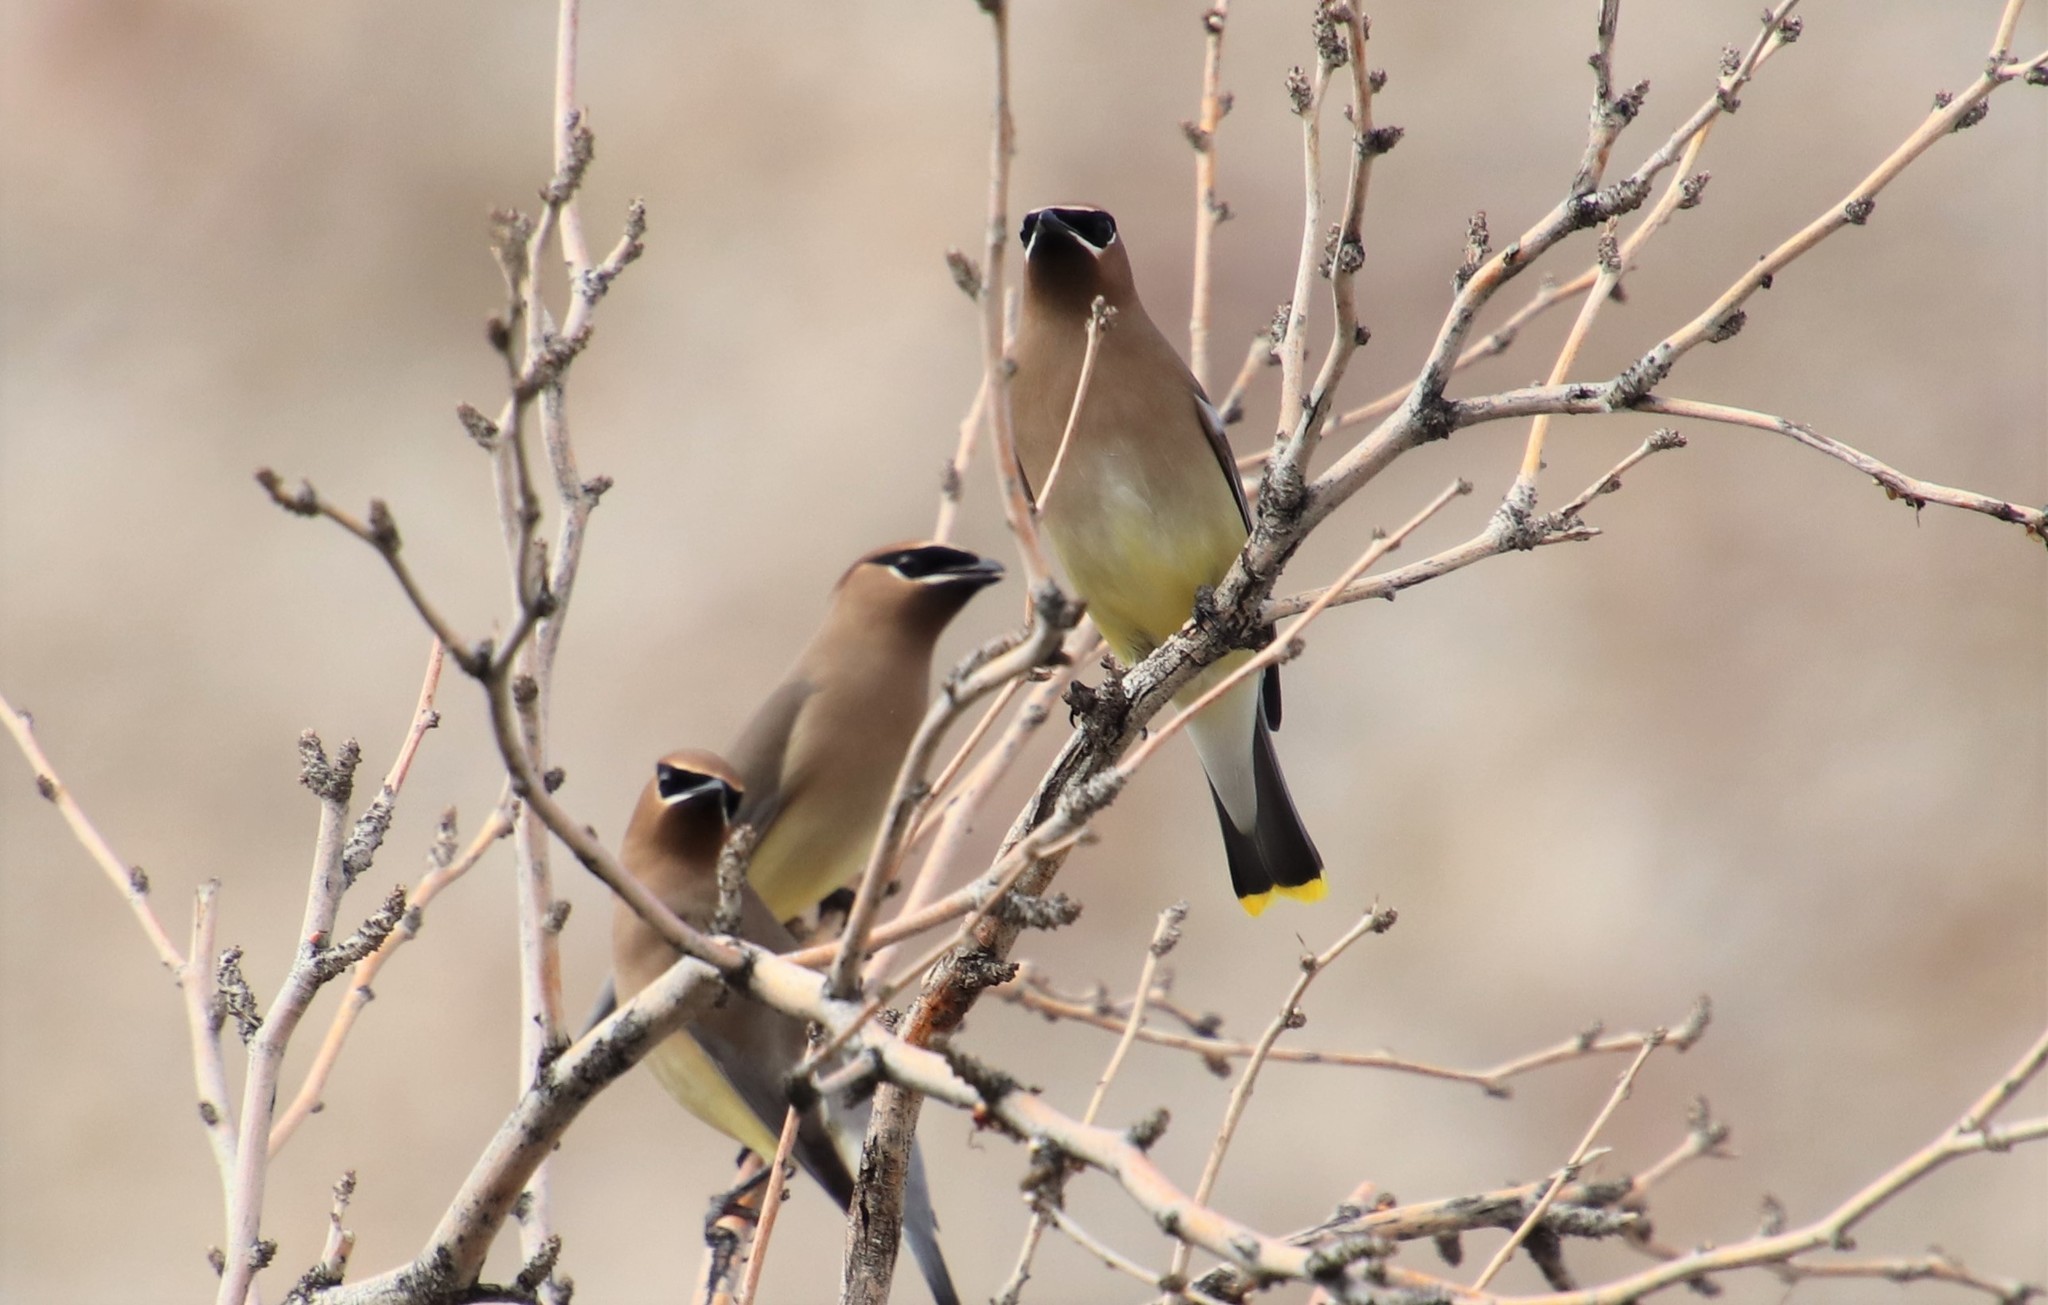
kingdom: Animalia
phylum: Chordata
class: Aves
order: Passeriformes
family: Bombycillidae
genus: Bombycilla
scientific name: Bombycilla cedrorum
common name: Cedar waxwing
